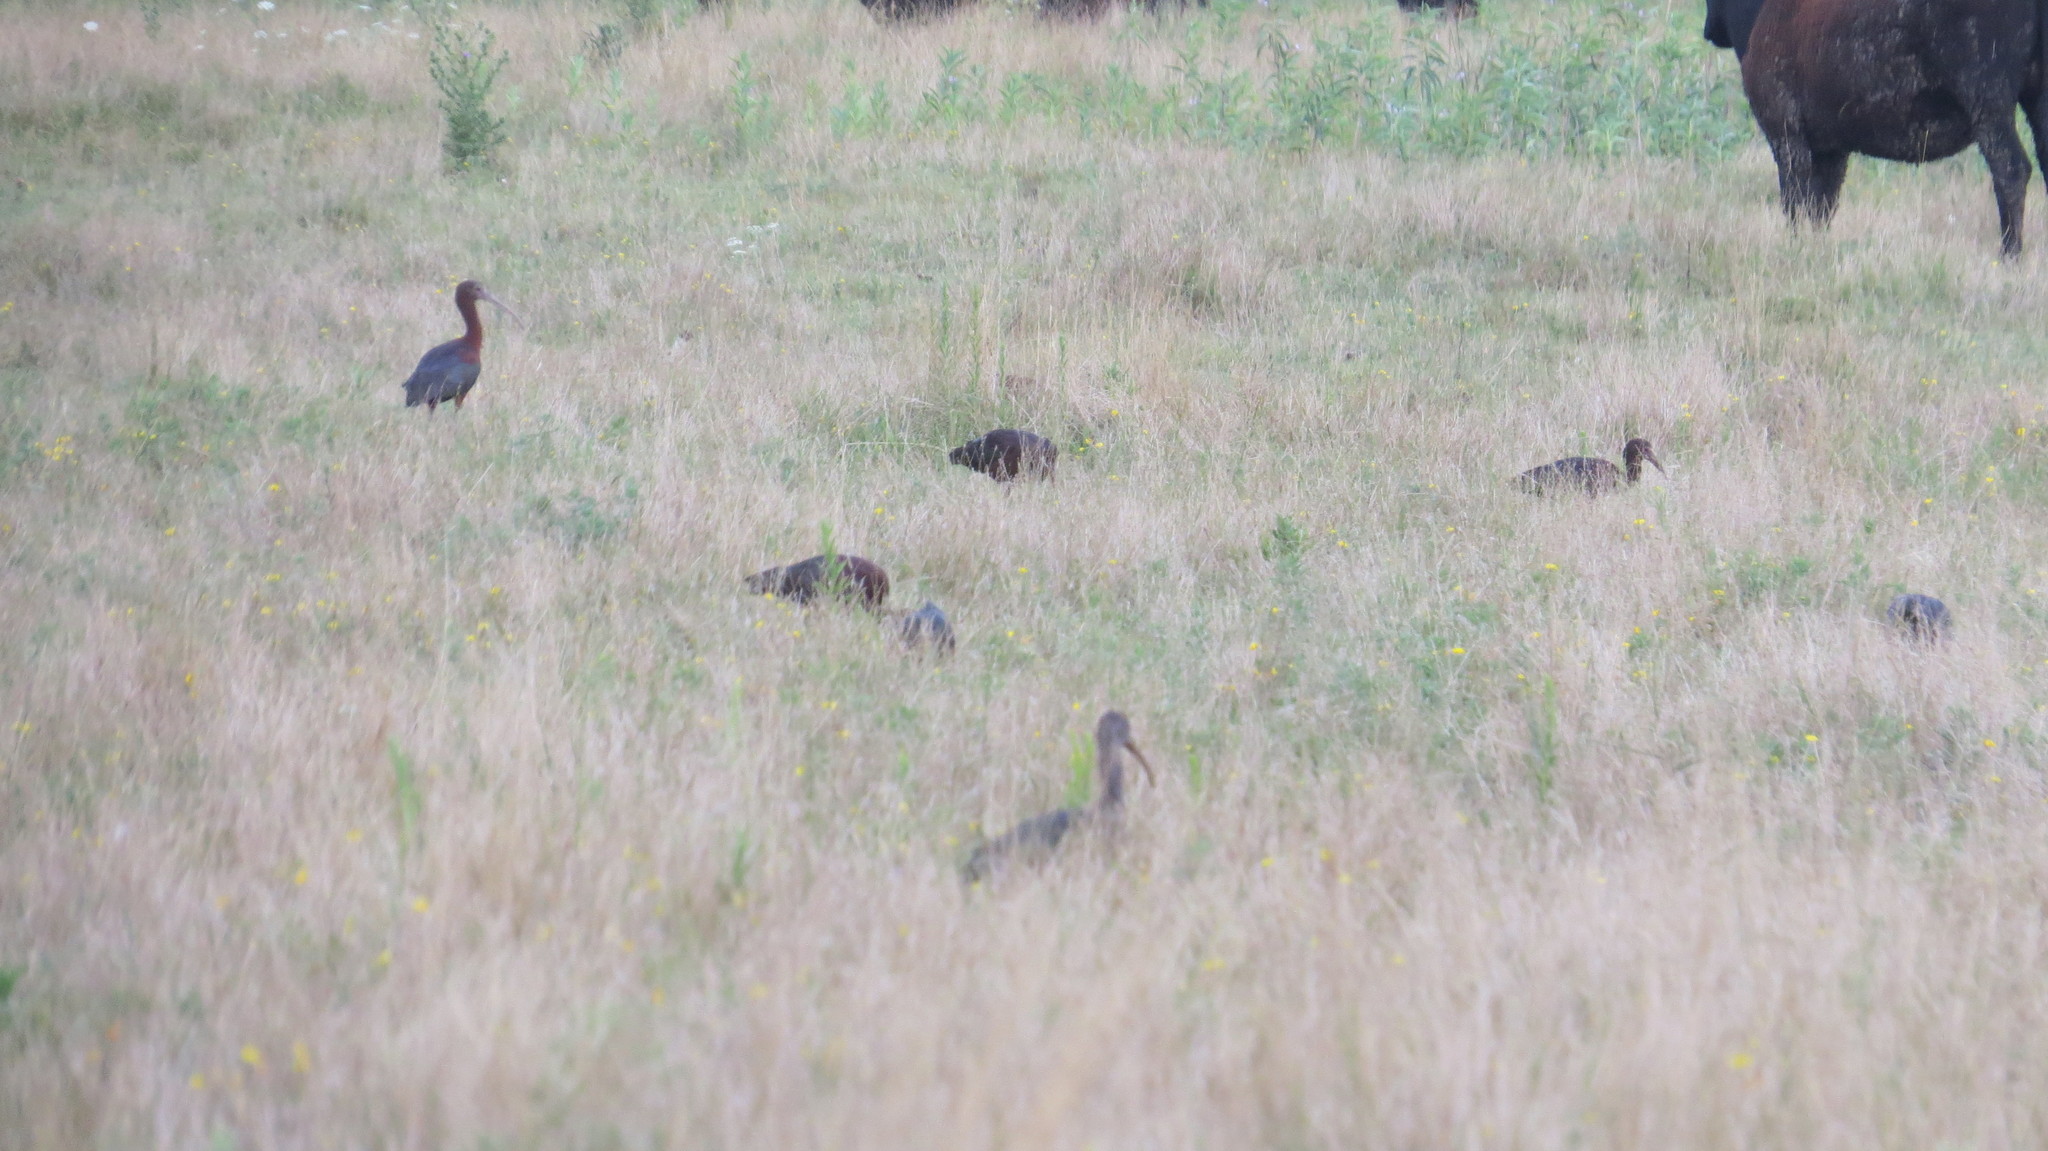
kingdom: Animalia
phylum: Chordata
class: Aves
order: Pelecaniformes
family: Threskiornithidae
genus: Plegadis
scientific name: Plegadis chihi
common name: White-faced ibis
